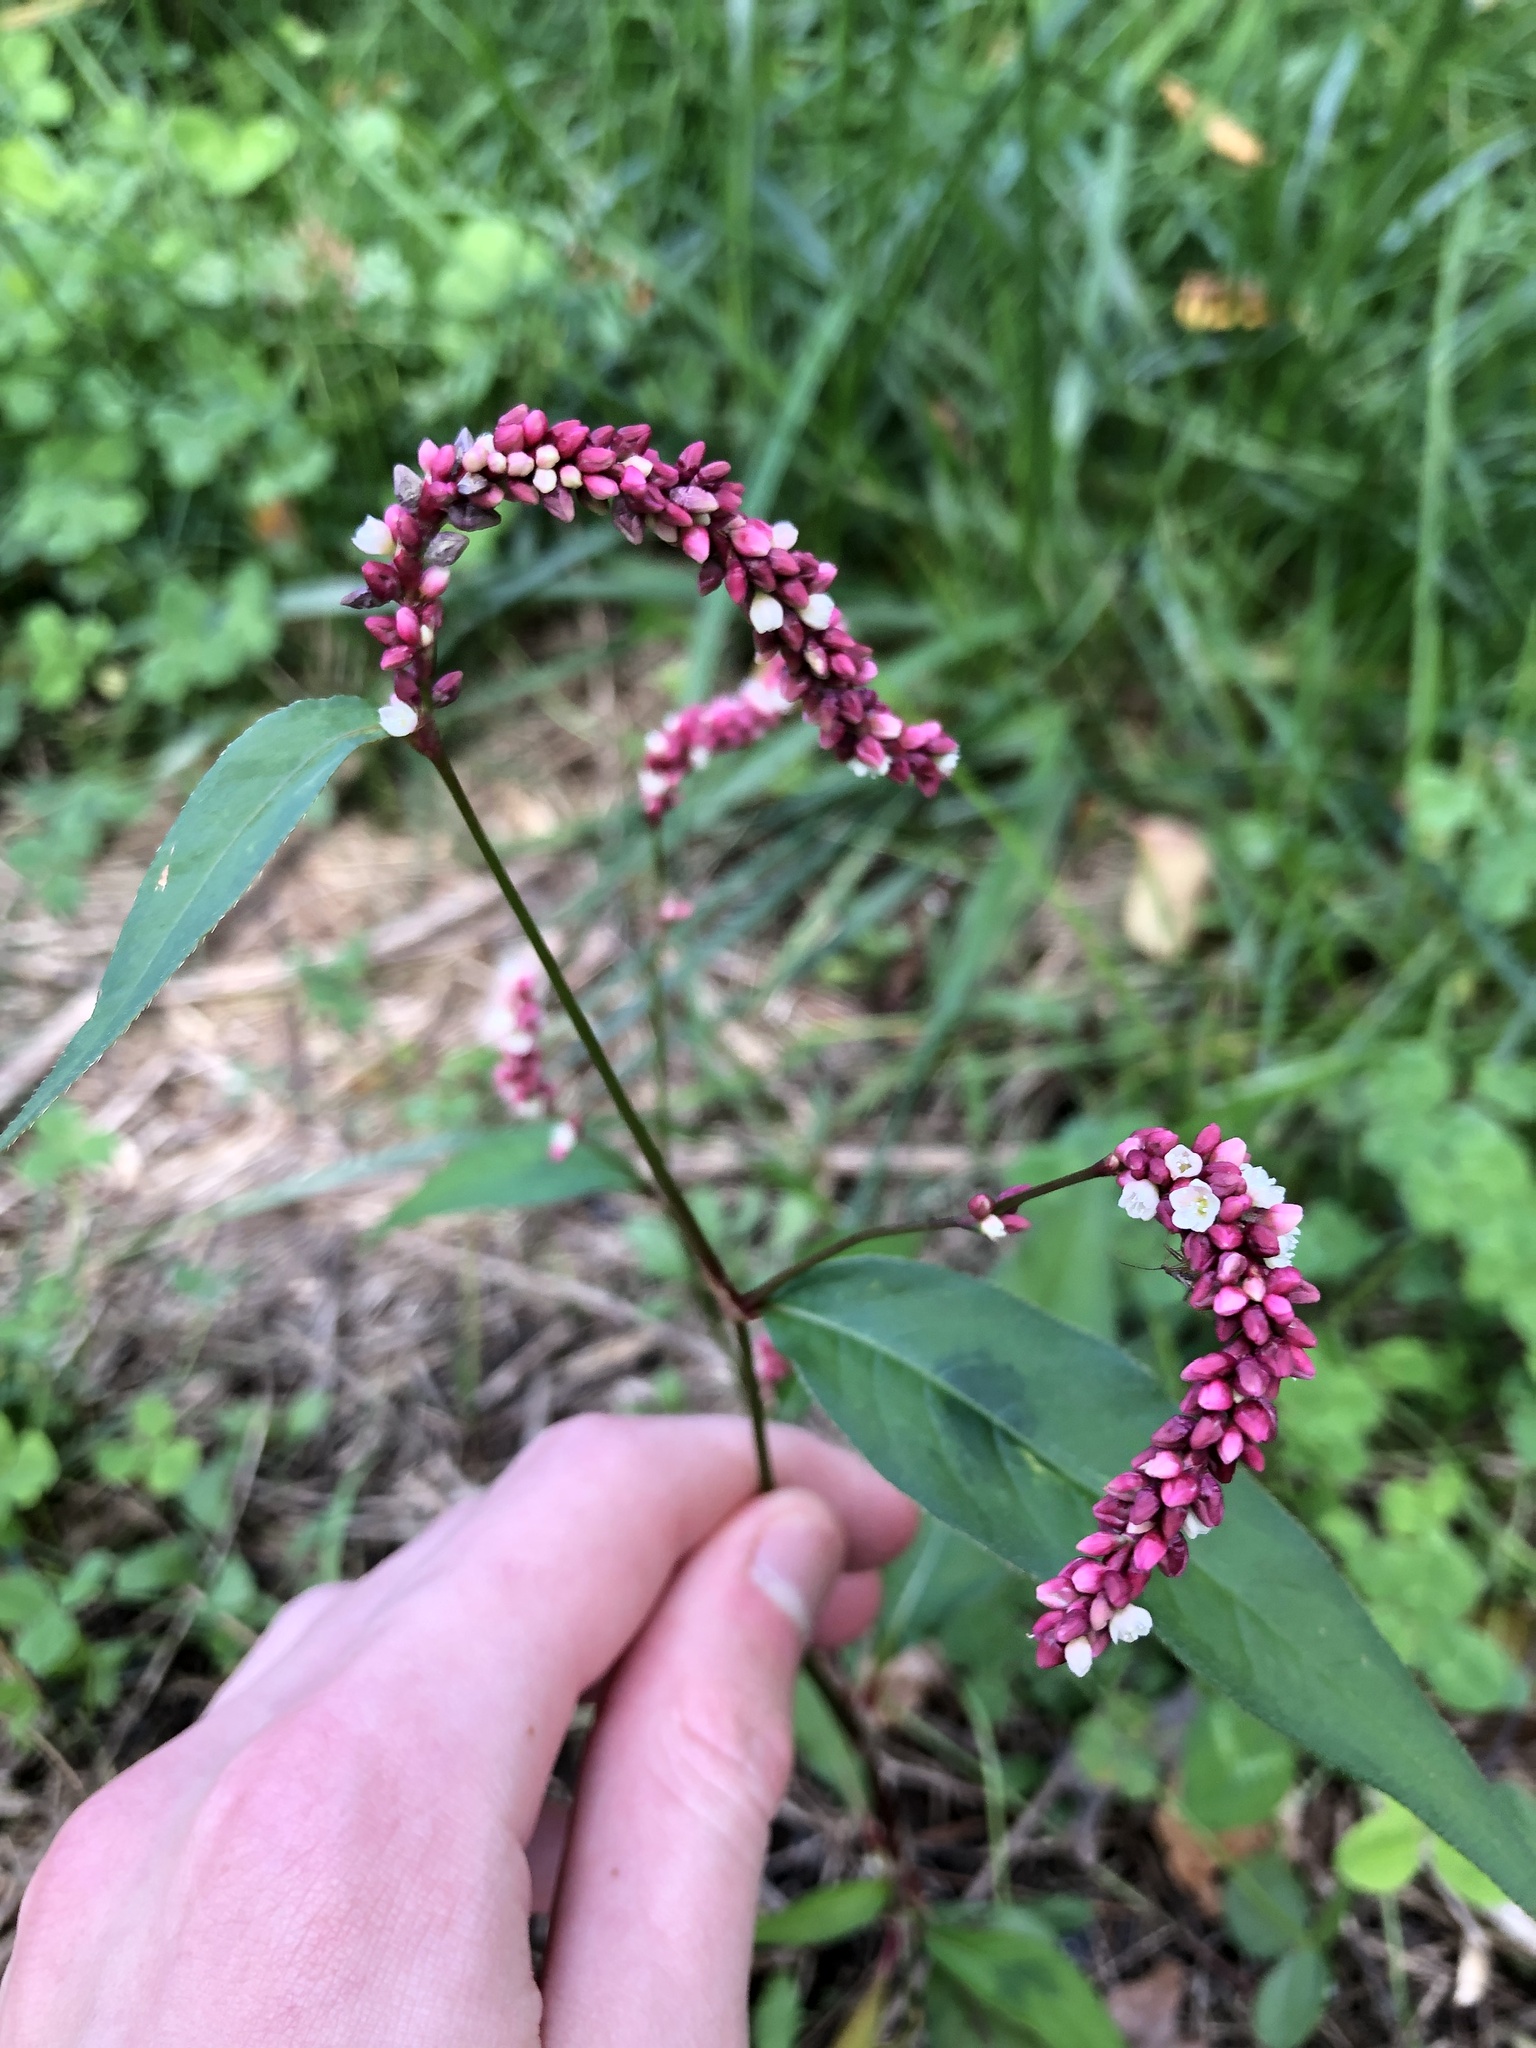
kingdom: Plantae
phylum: Tracheophyta
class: Magnoliopsida
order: Caryophyllales
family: Polygonaceae
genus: Persicaria
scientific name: Persicaria extremiorientalis
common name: Far-eastern smartweed
